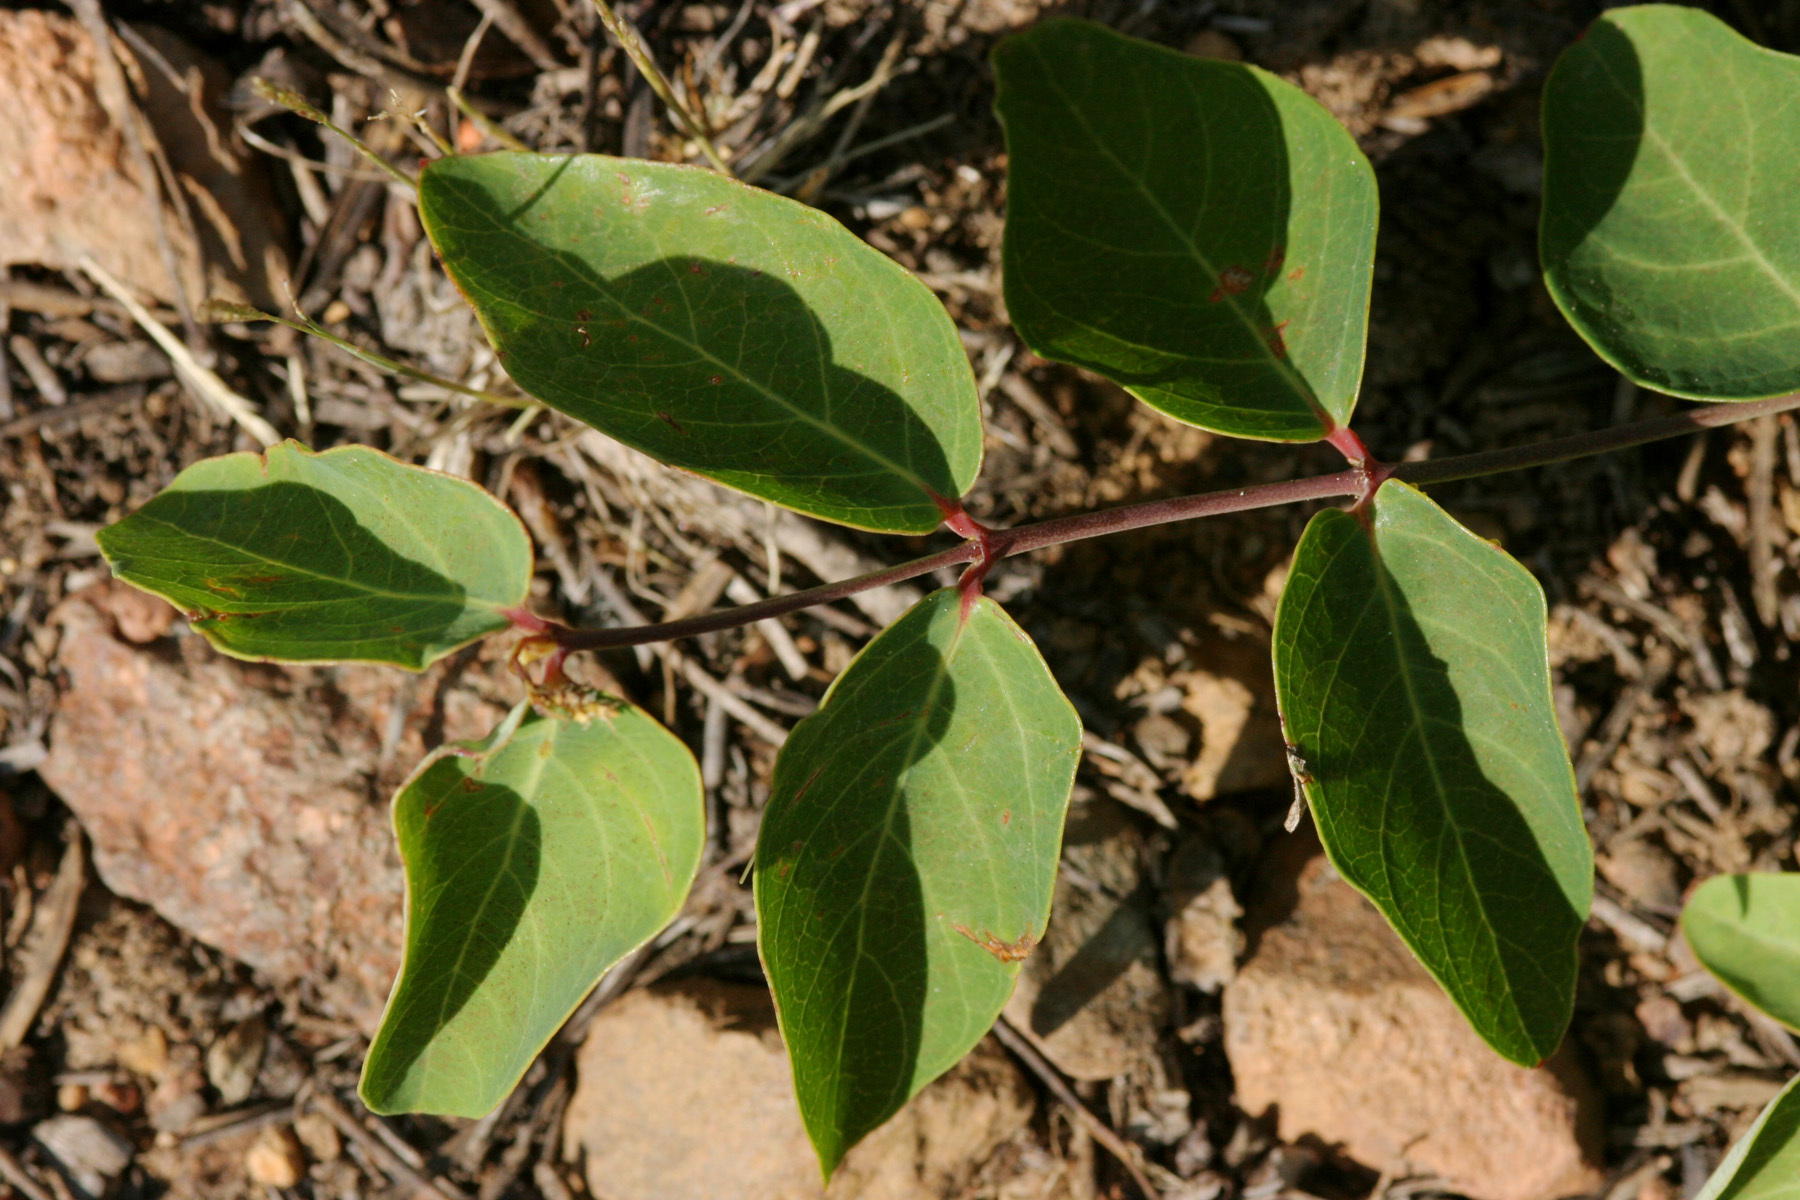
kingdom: Plantae
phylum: Tracheophyta
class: Magnoliopsida
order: Gentianales
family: Apocynaceae
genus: Apocynum
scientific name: Apocynum androsaemifolium
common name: Spreading dogbane
